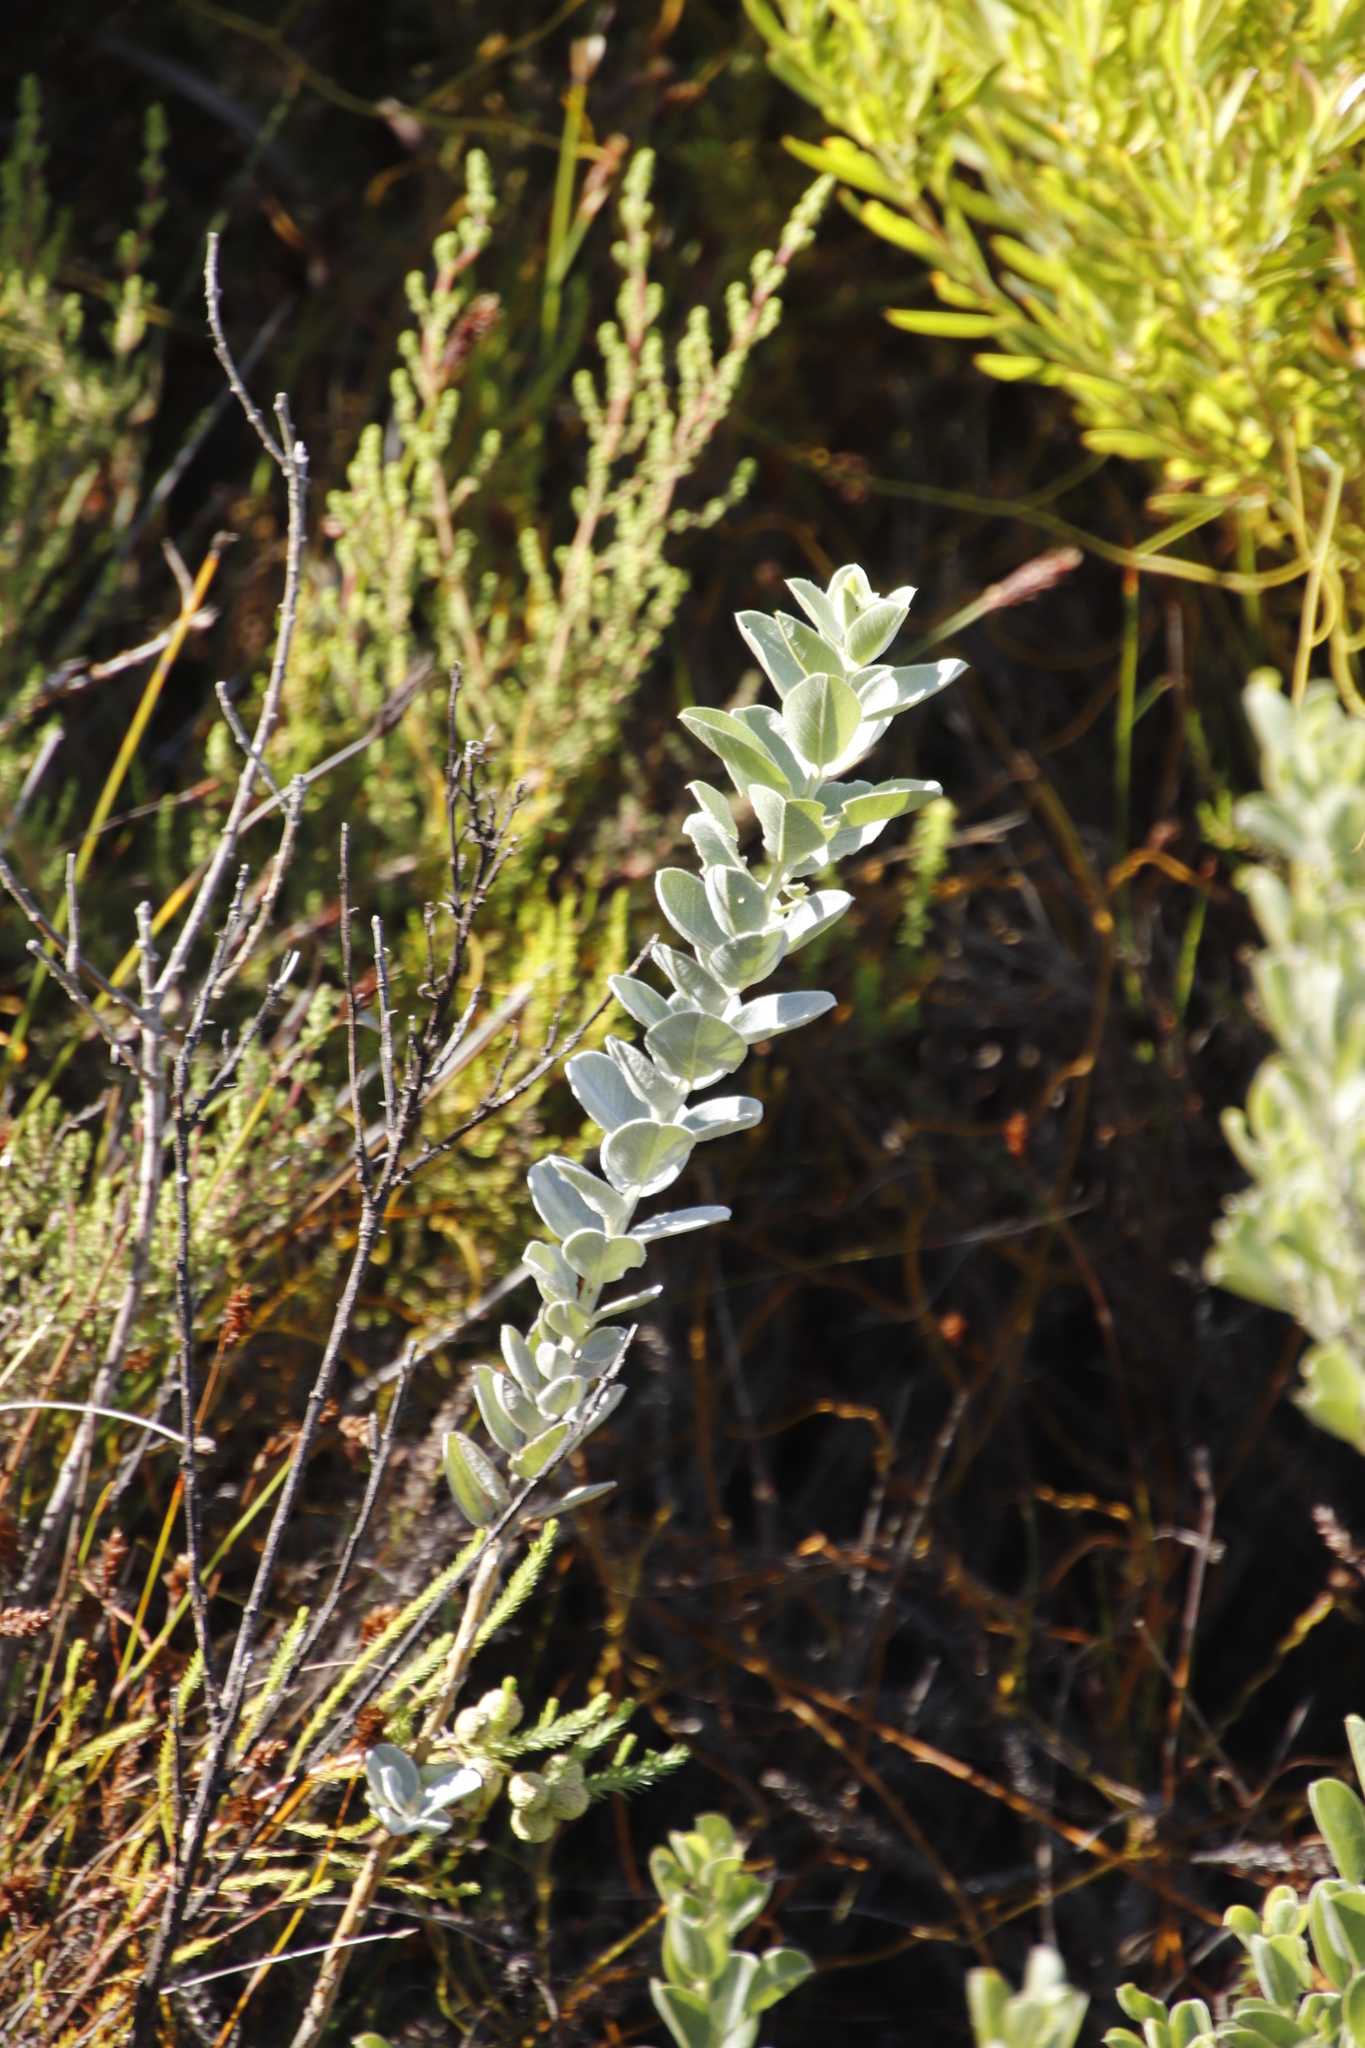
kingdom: Plantae
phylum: Tracheophyta
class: Magnoliopsida
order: Fabales
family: Fabaceae
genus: Podalyria
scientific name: Podalyria calyptrata
